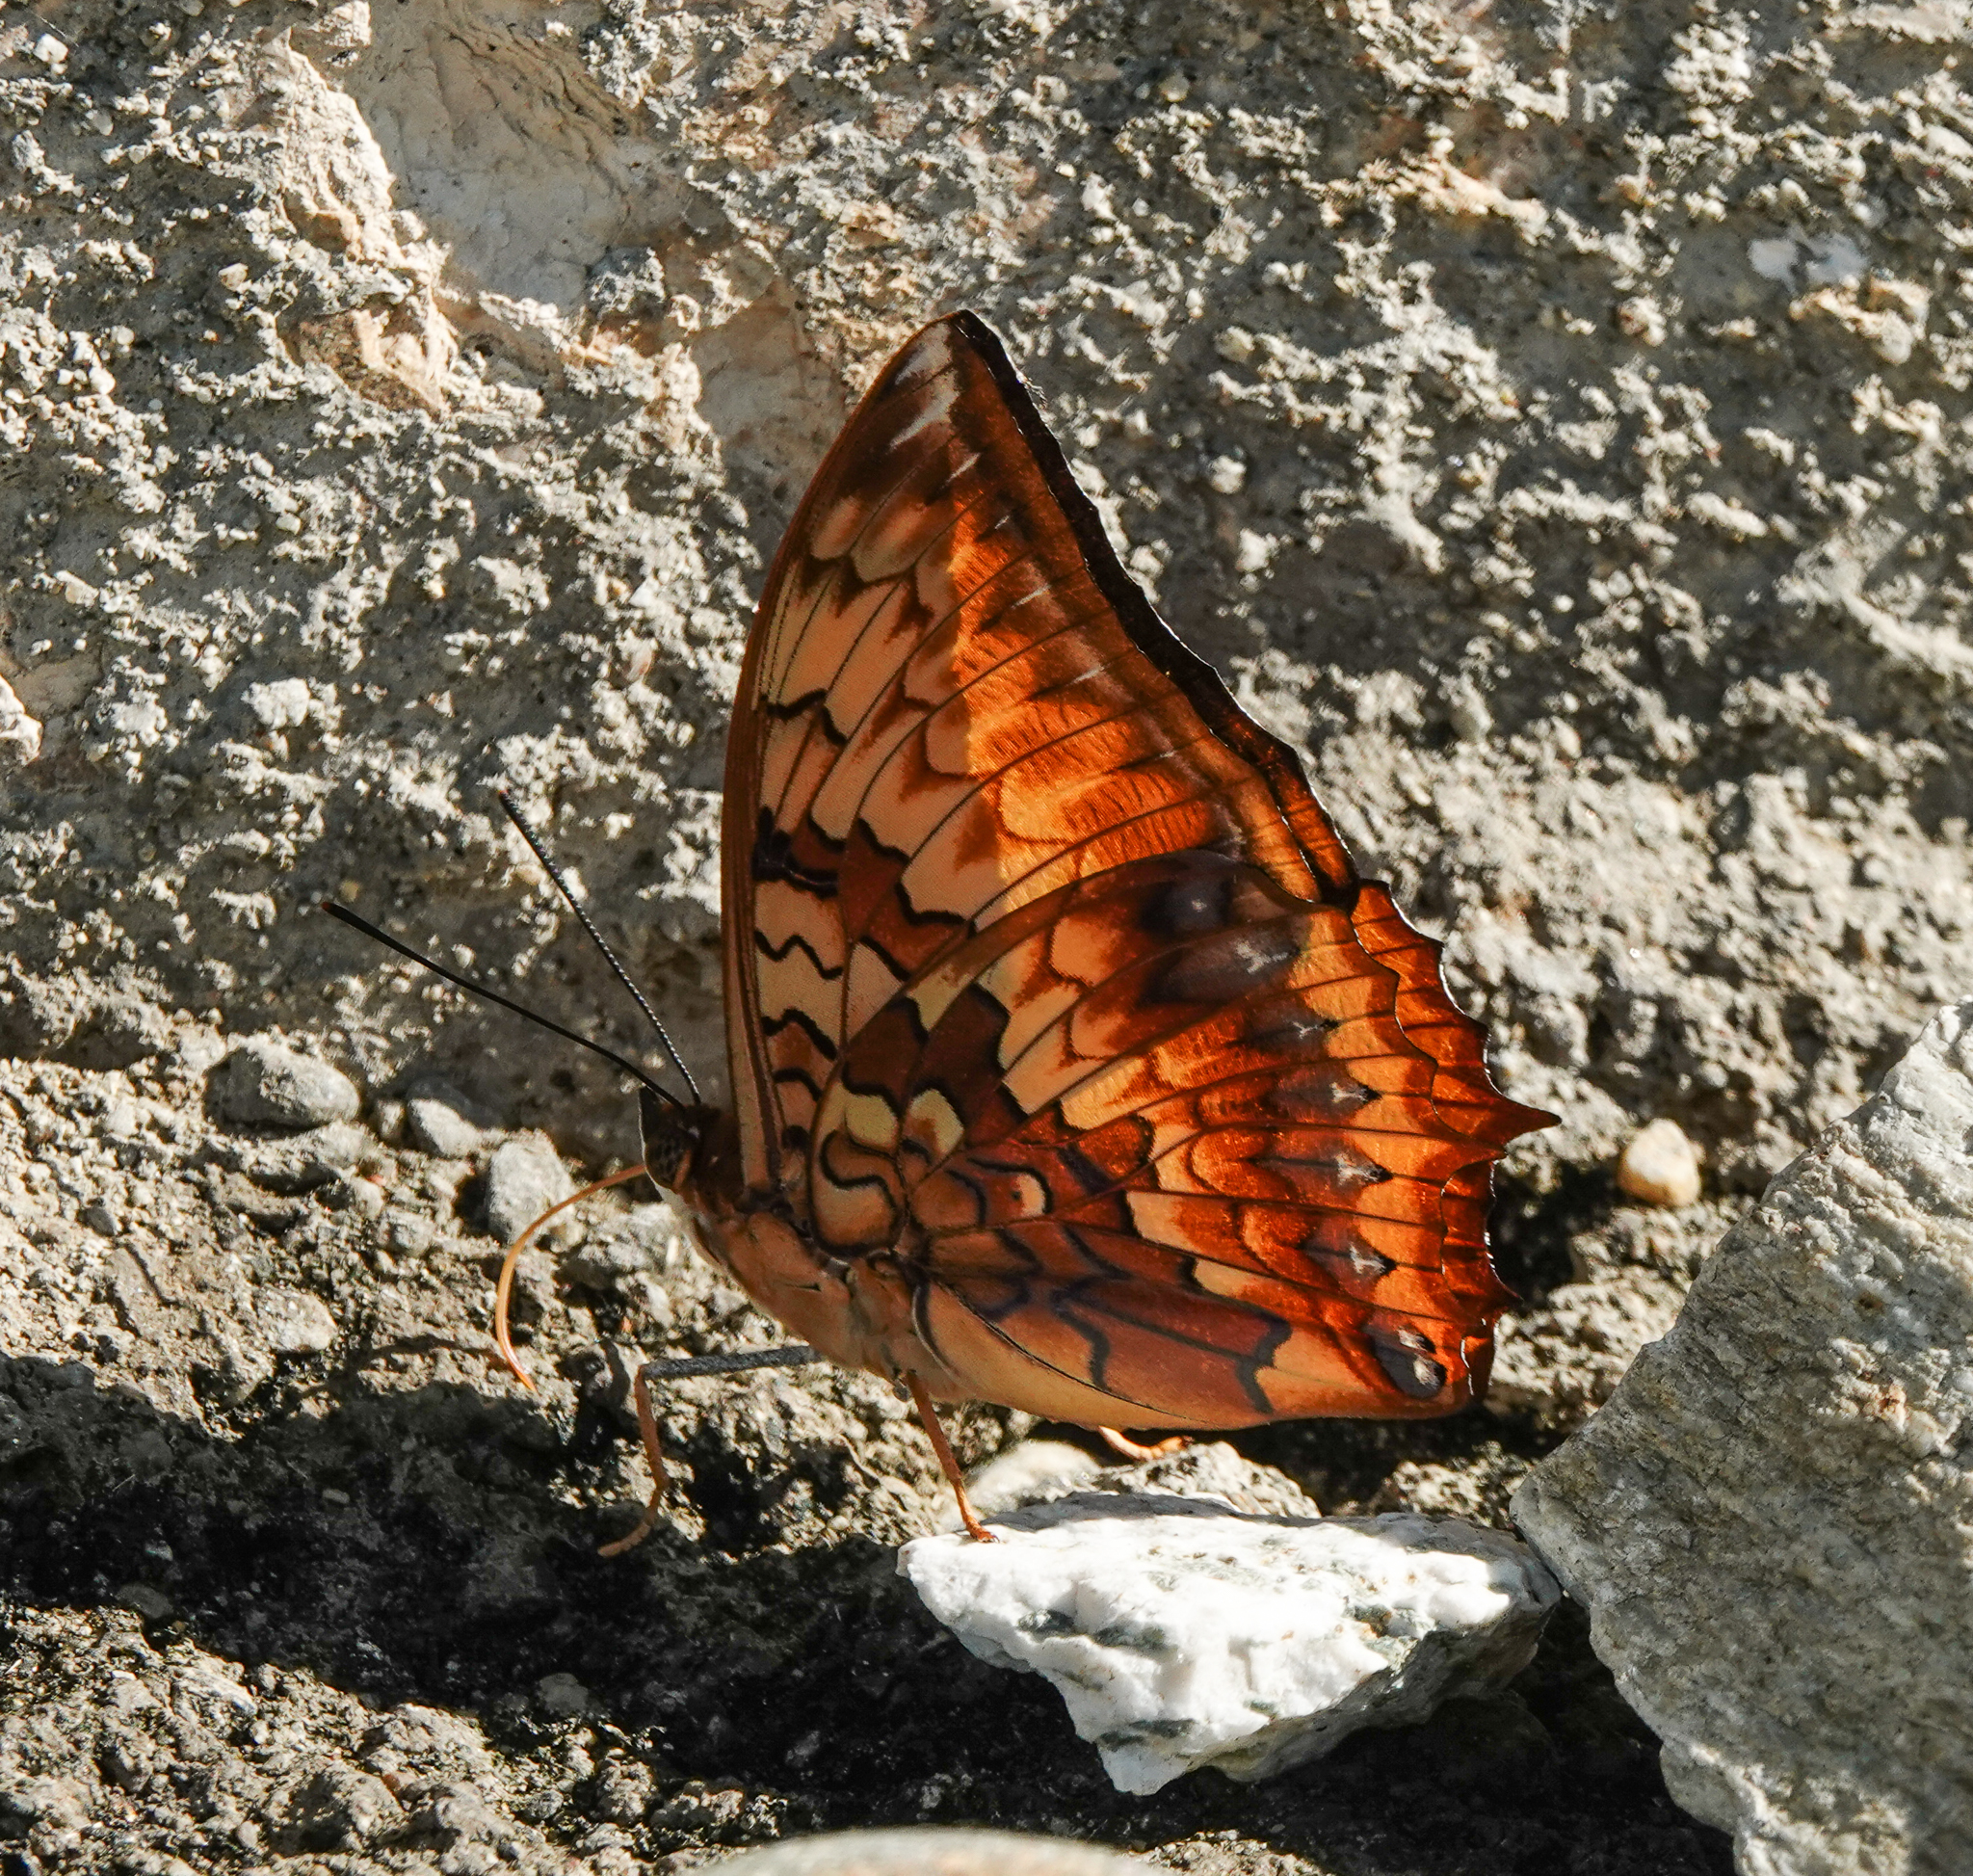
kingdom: Animalia
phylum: Arthropoda
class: Insecta
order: Lepidoptera
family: Nymphalidae
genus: Charaxes
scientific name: Charaxes kahruba
